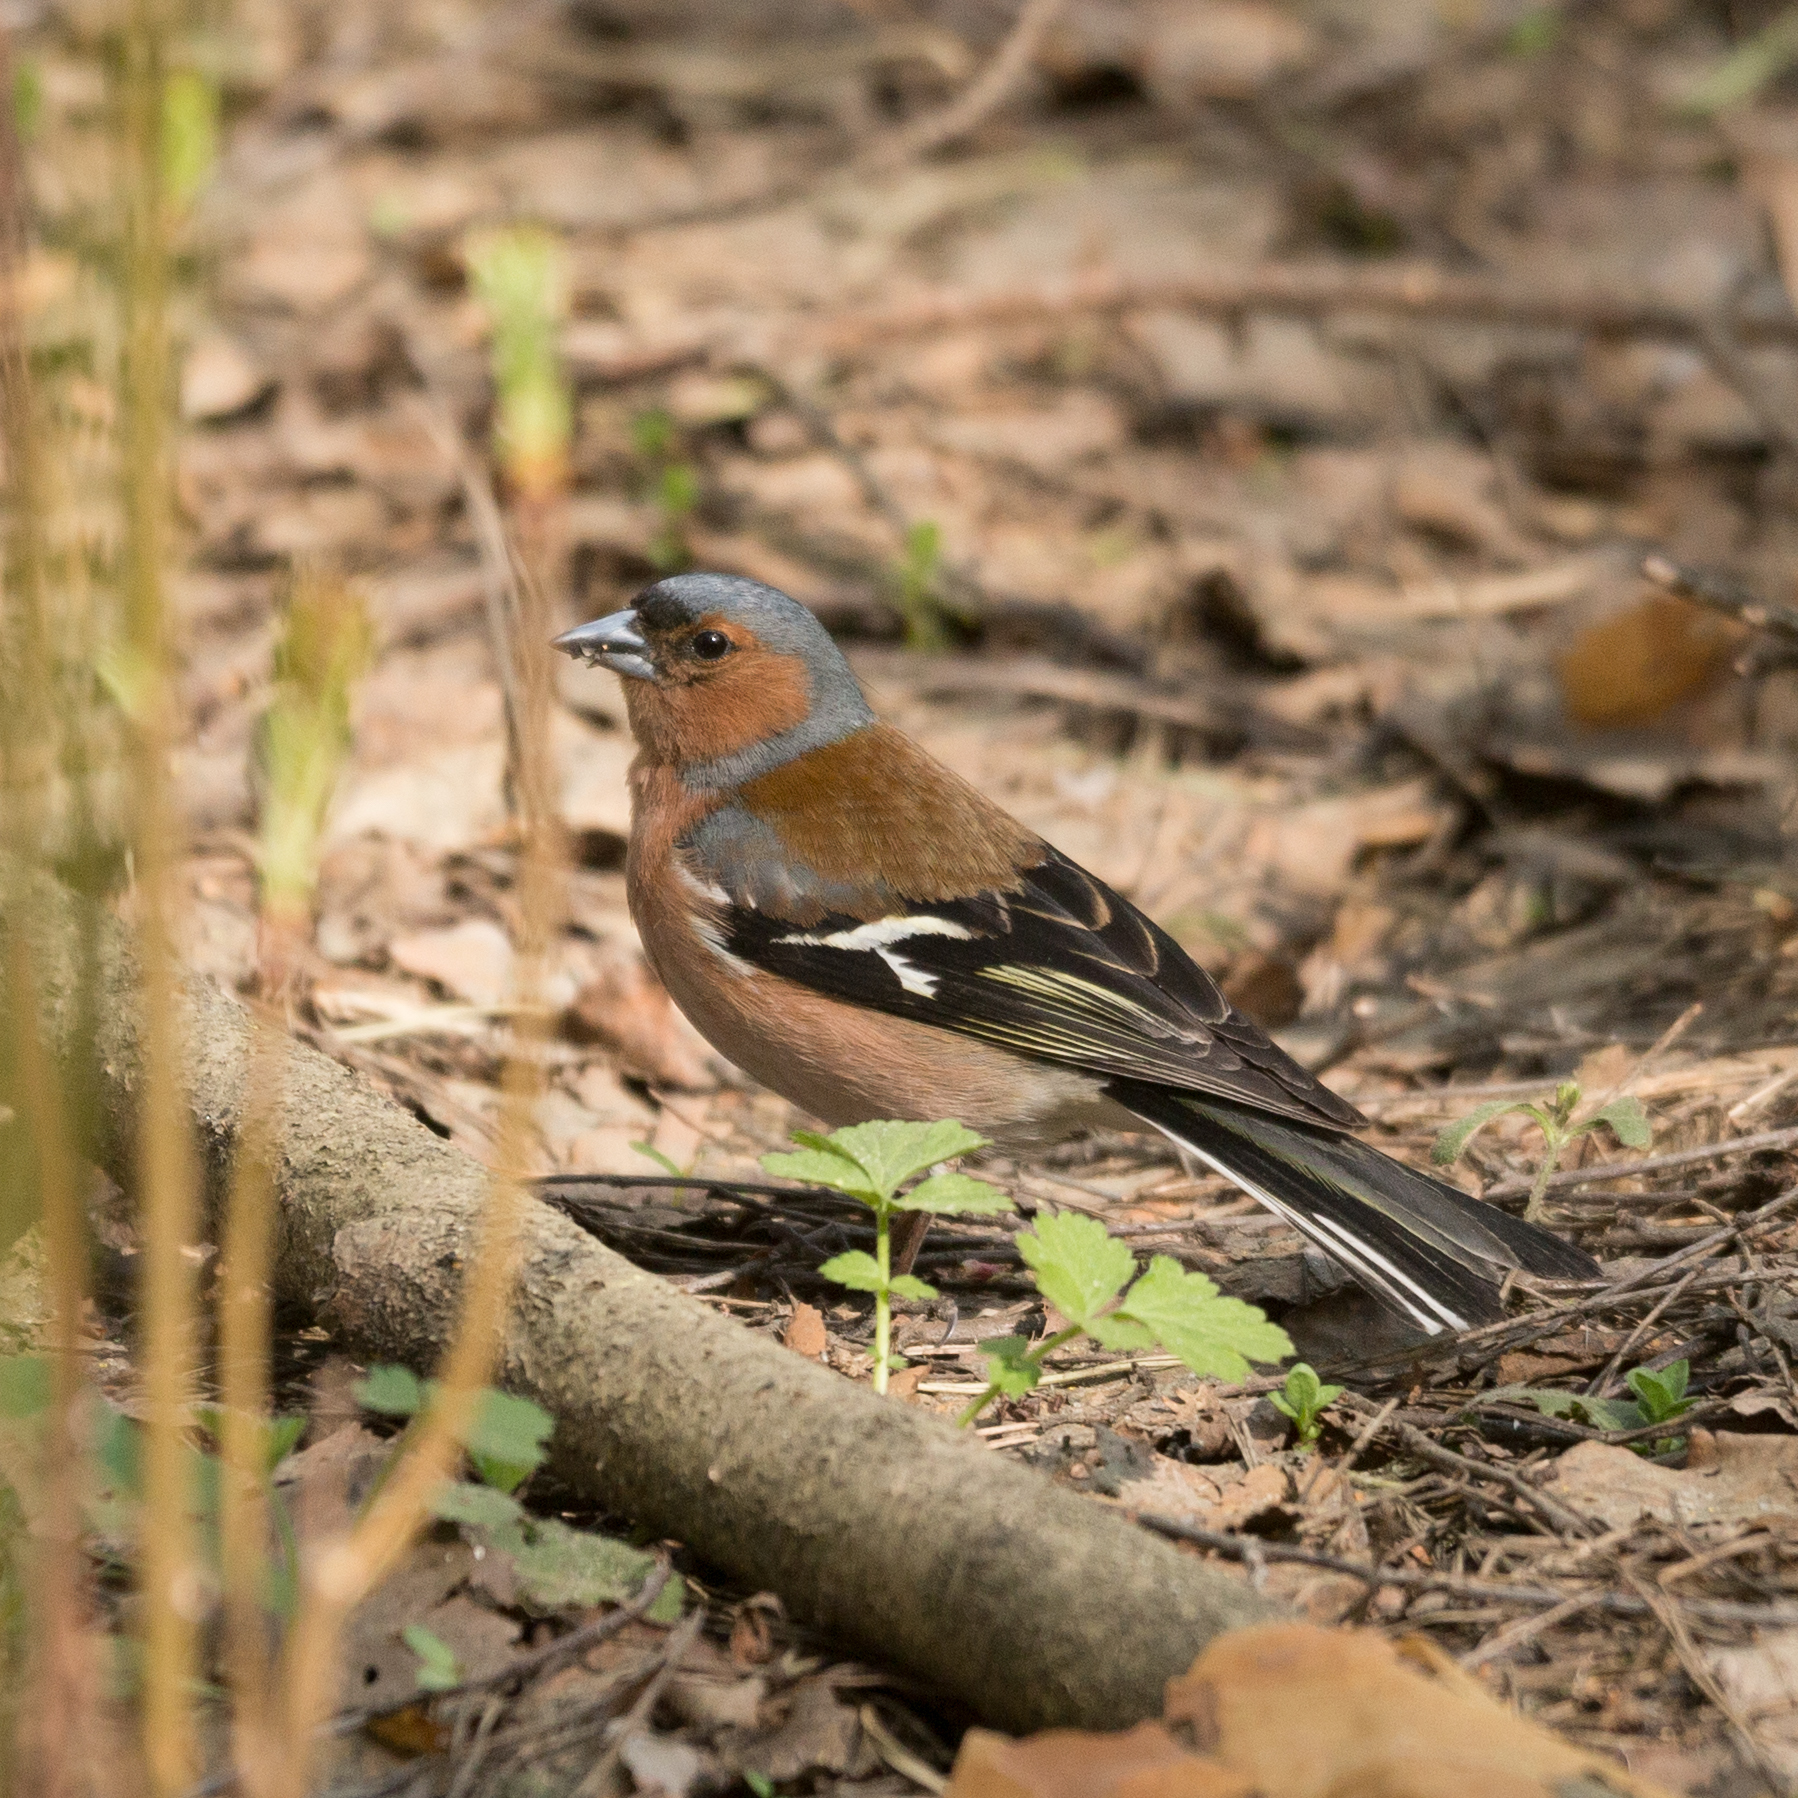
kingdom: Animalia
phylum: Chordata
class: Aves
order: Passeriformes
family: Fringillidae
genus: Fringilla
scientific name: Fringilla coelebs
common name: Common chaffinch
